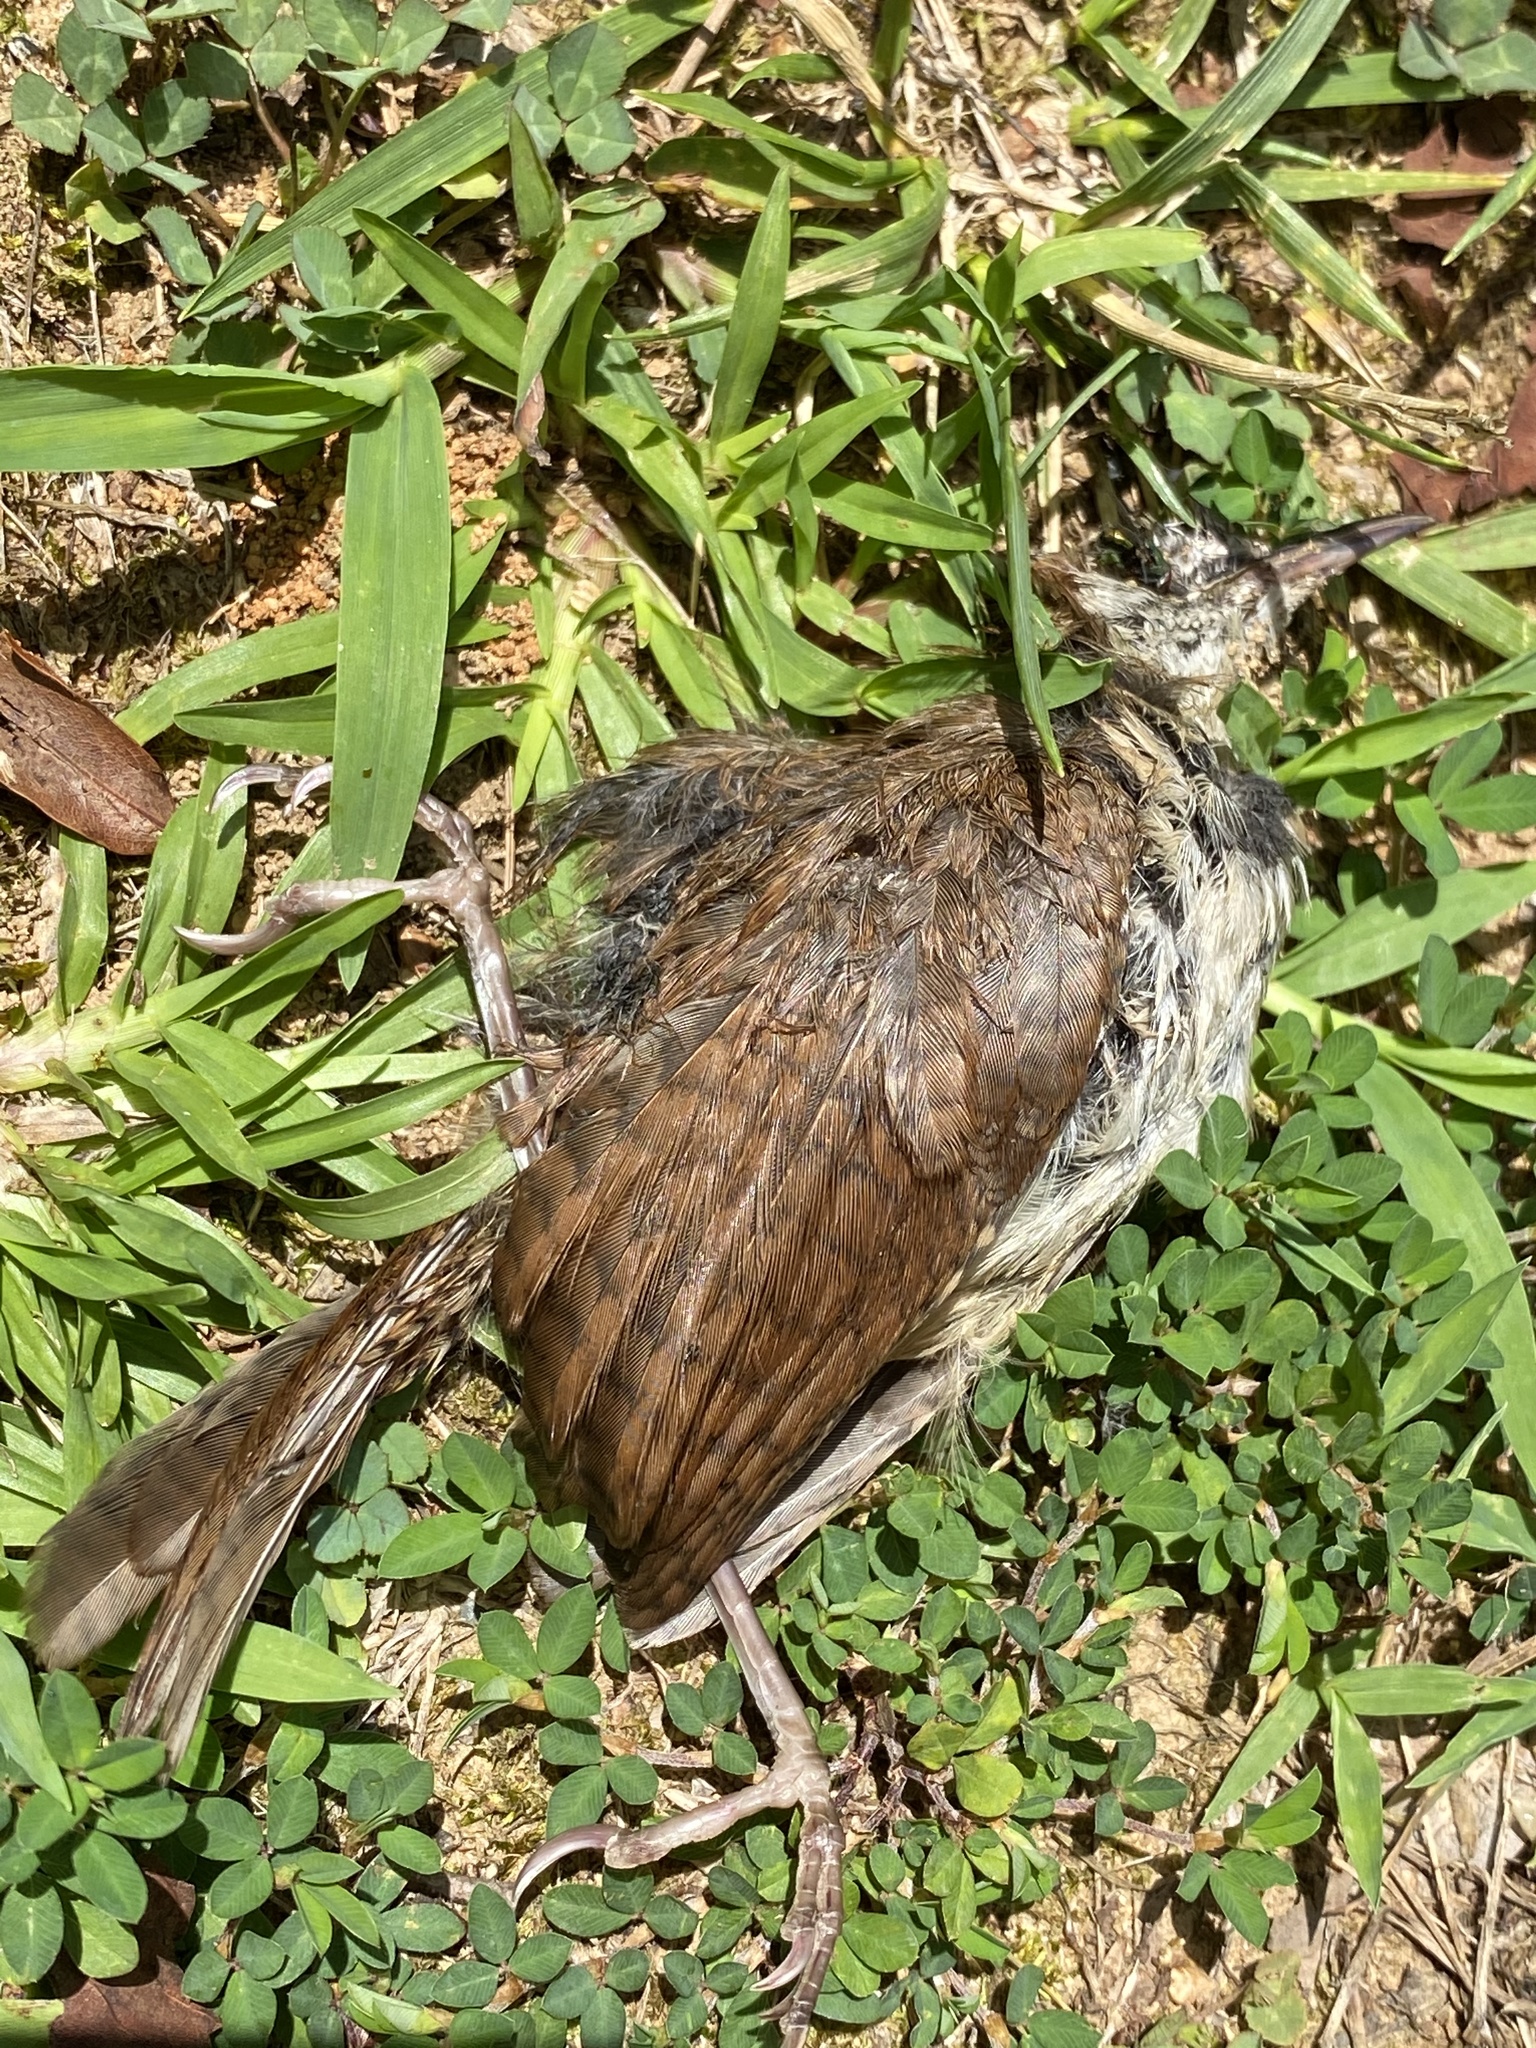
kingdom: Animalia
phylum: Chordata
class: Aves
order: Passeriformes
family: Troglodytidae
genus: Thryothorus
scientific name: Thryothorus ludovicianus
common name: Carolina wren
